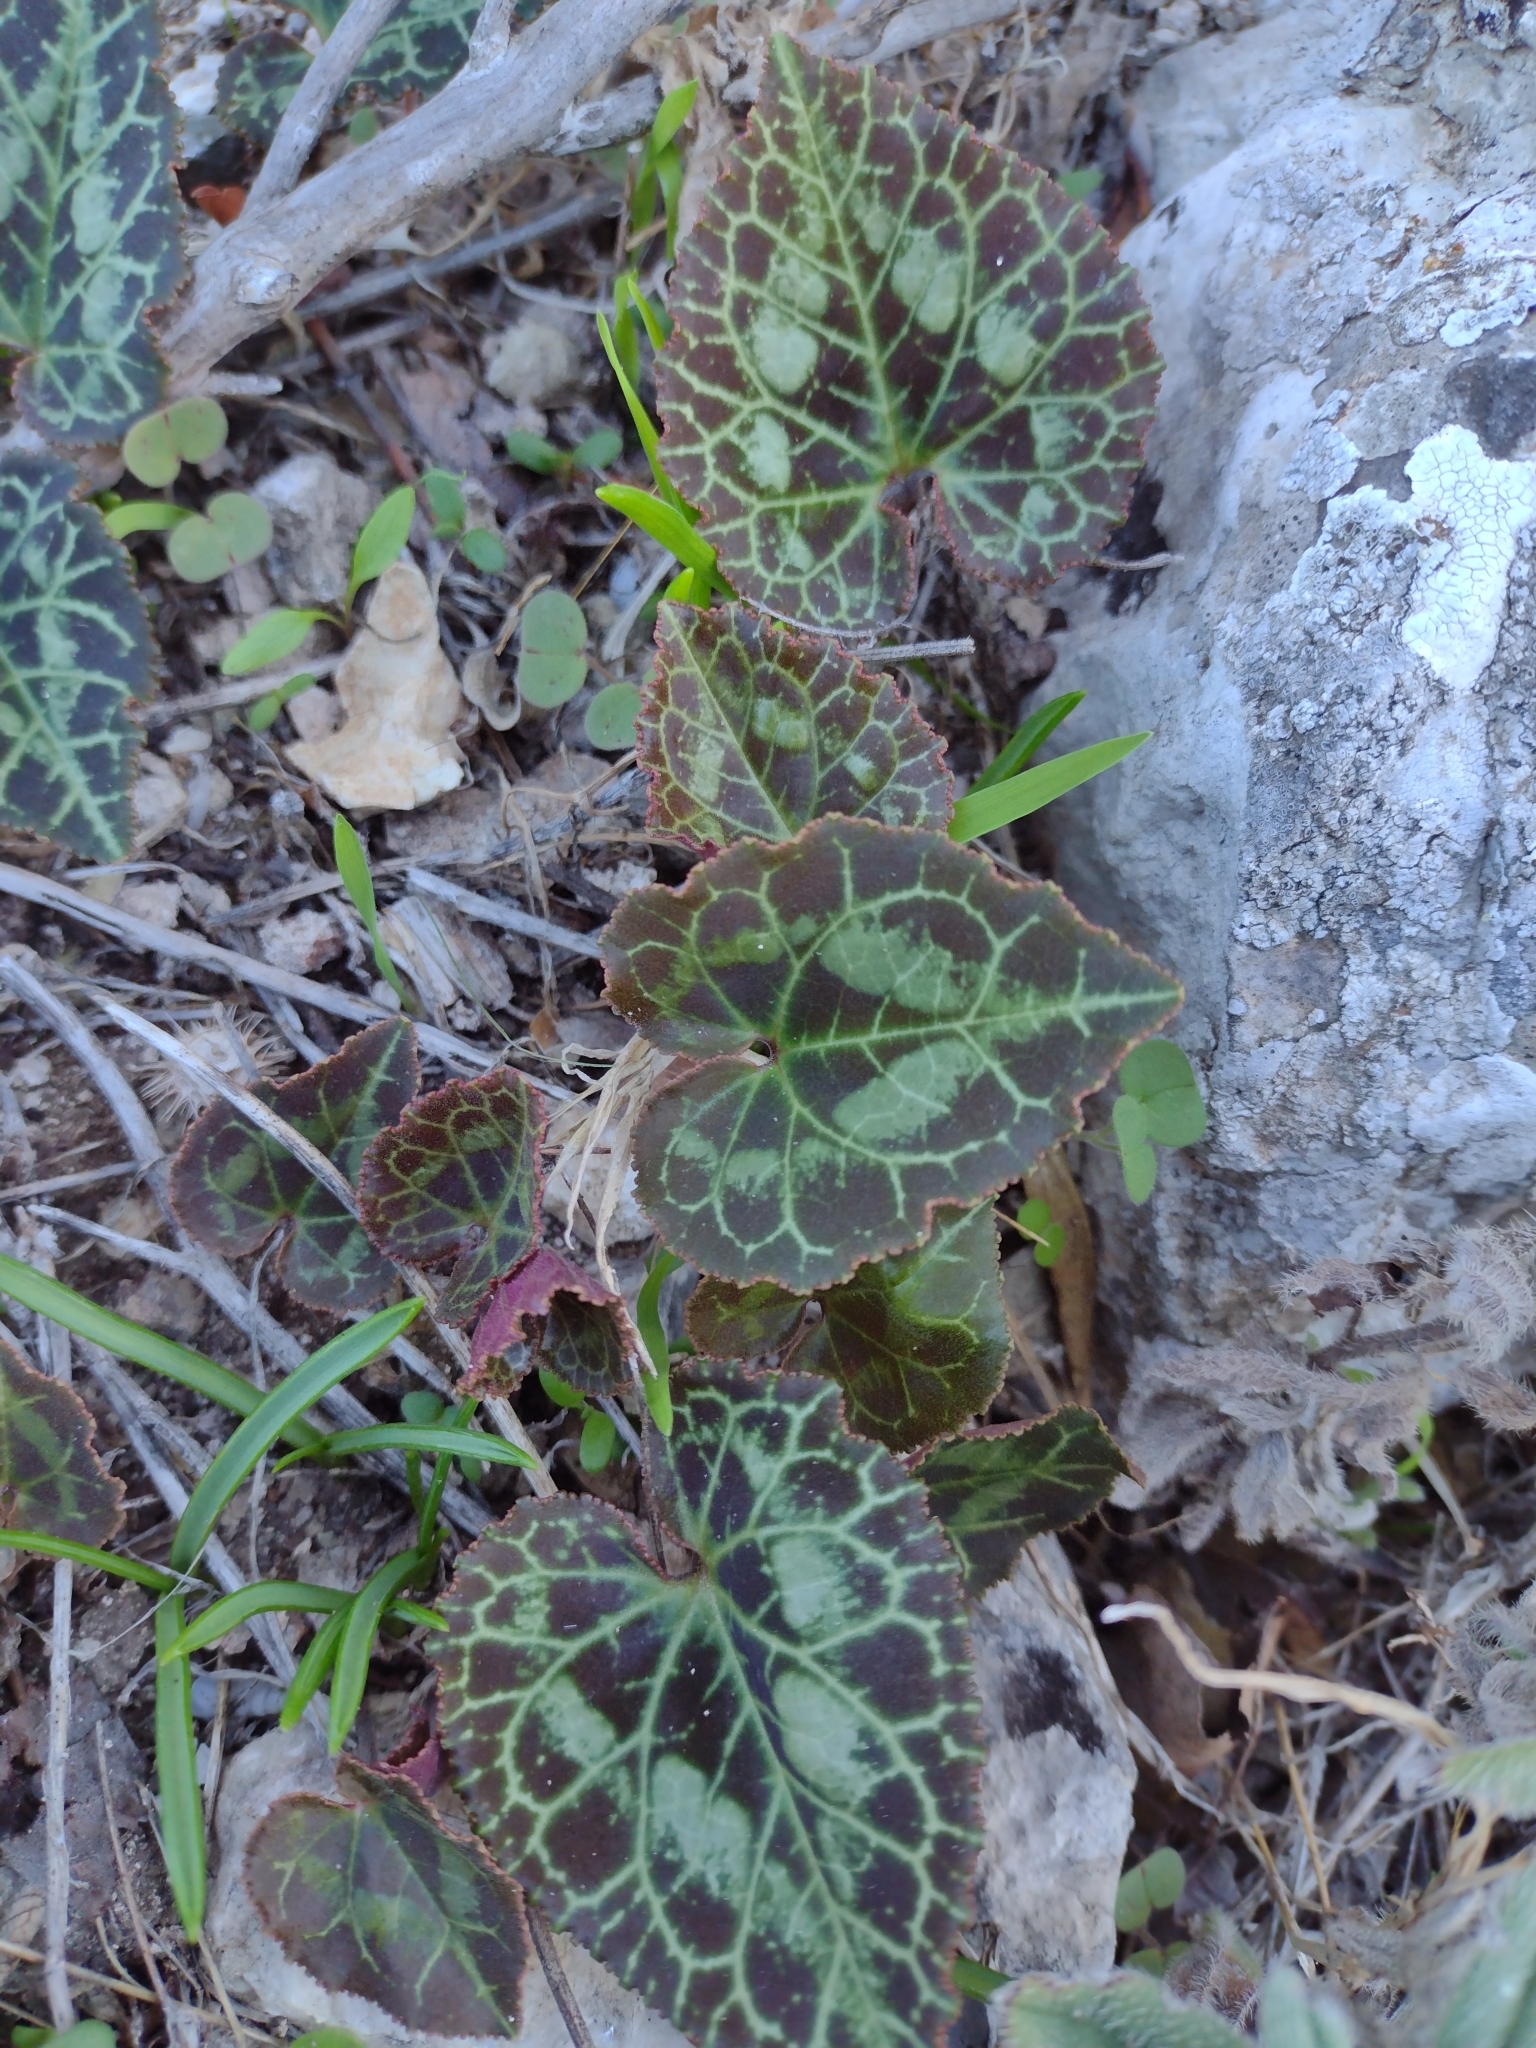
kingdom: Plantae
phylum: Tracheophyta
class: Magnoliopsida
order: Ericales
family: Primulaceae
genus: Cyclamen
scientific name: Cyclamen graecum
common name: Greek cyclamen
